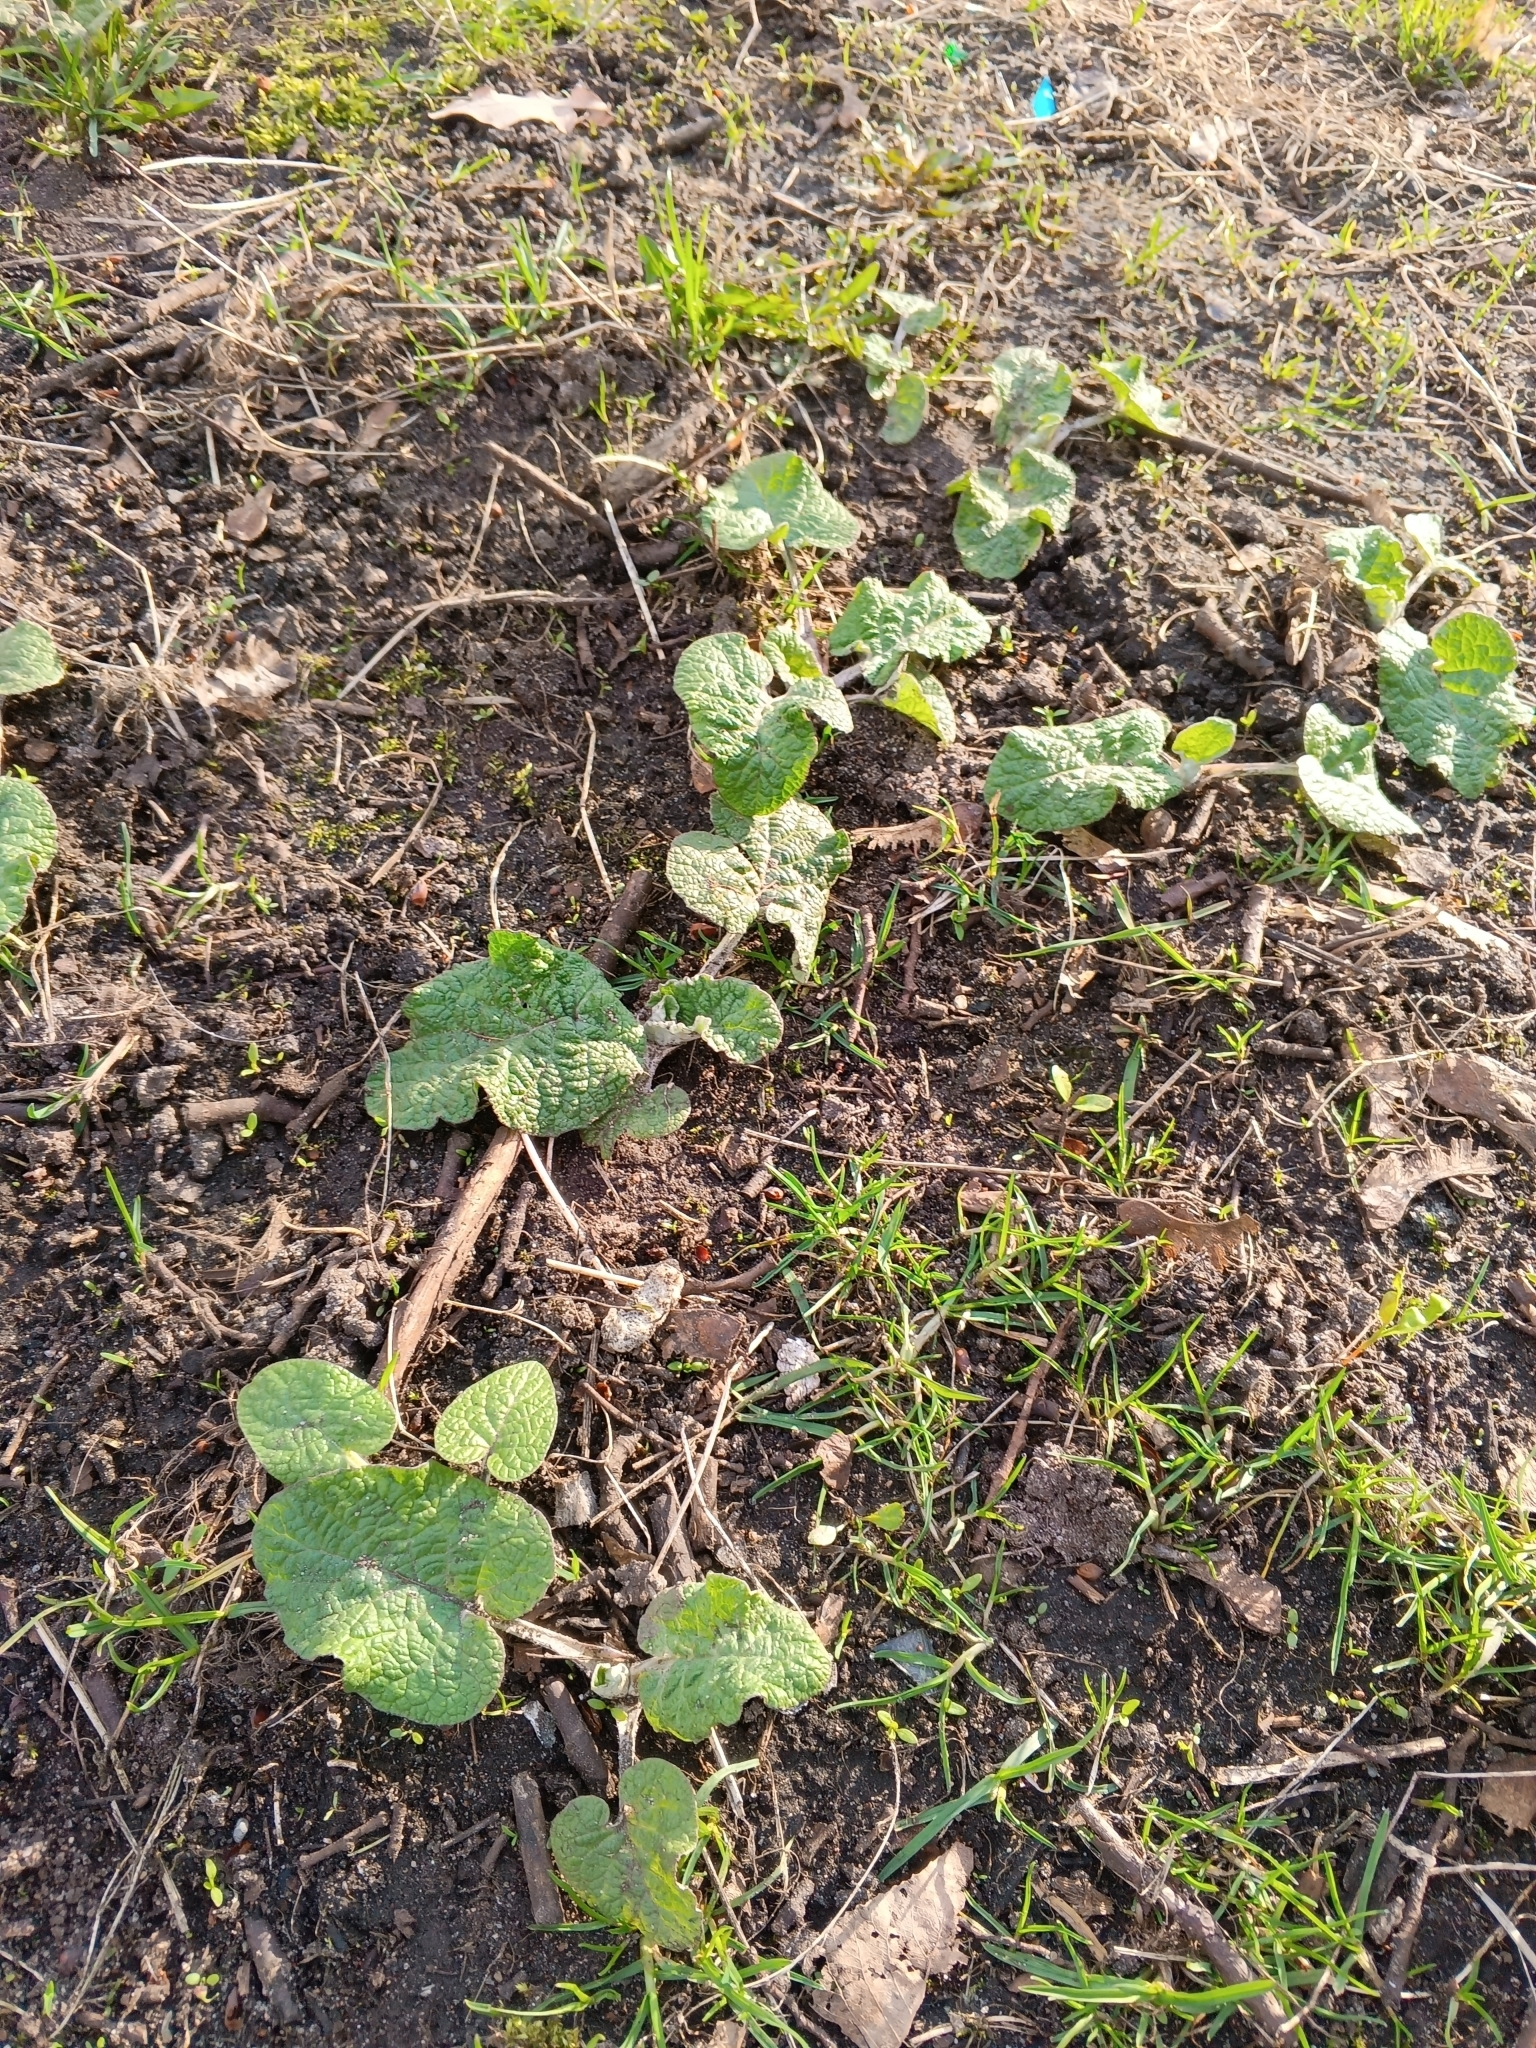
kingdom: Plantae
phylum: Tracheophyta
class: Magnoliopsida
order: Asterales
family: Asteraceae
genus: Arctium
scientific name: Arctium
